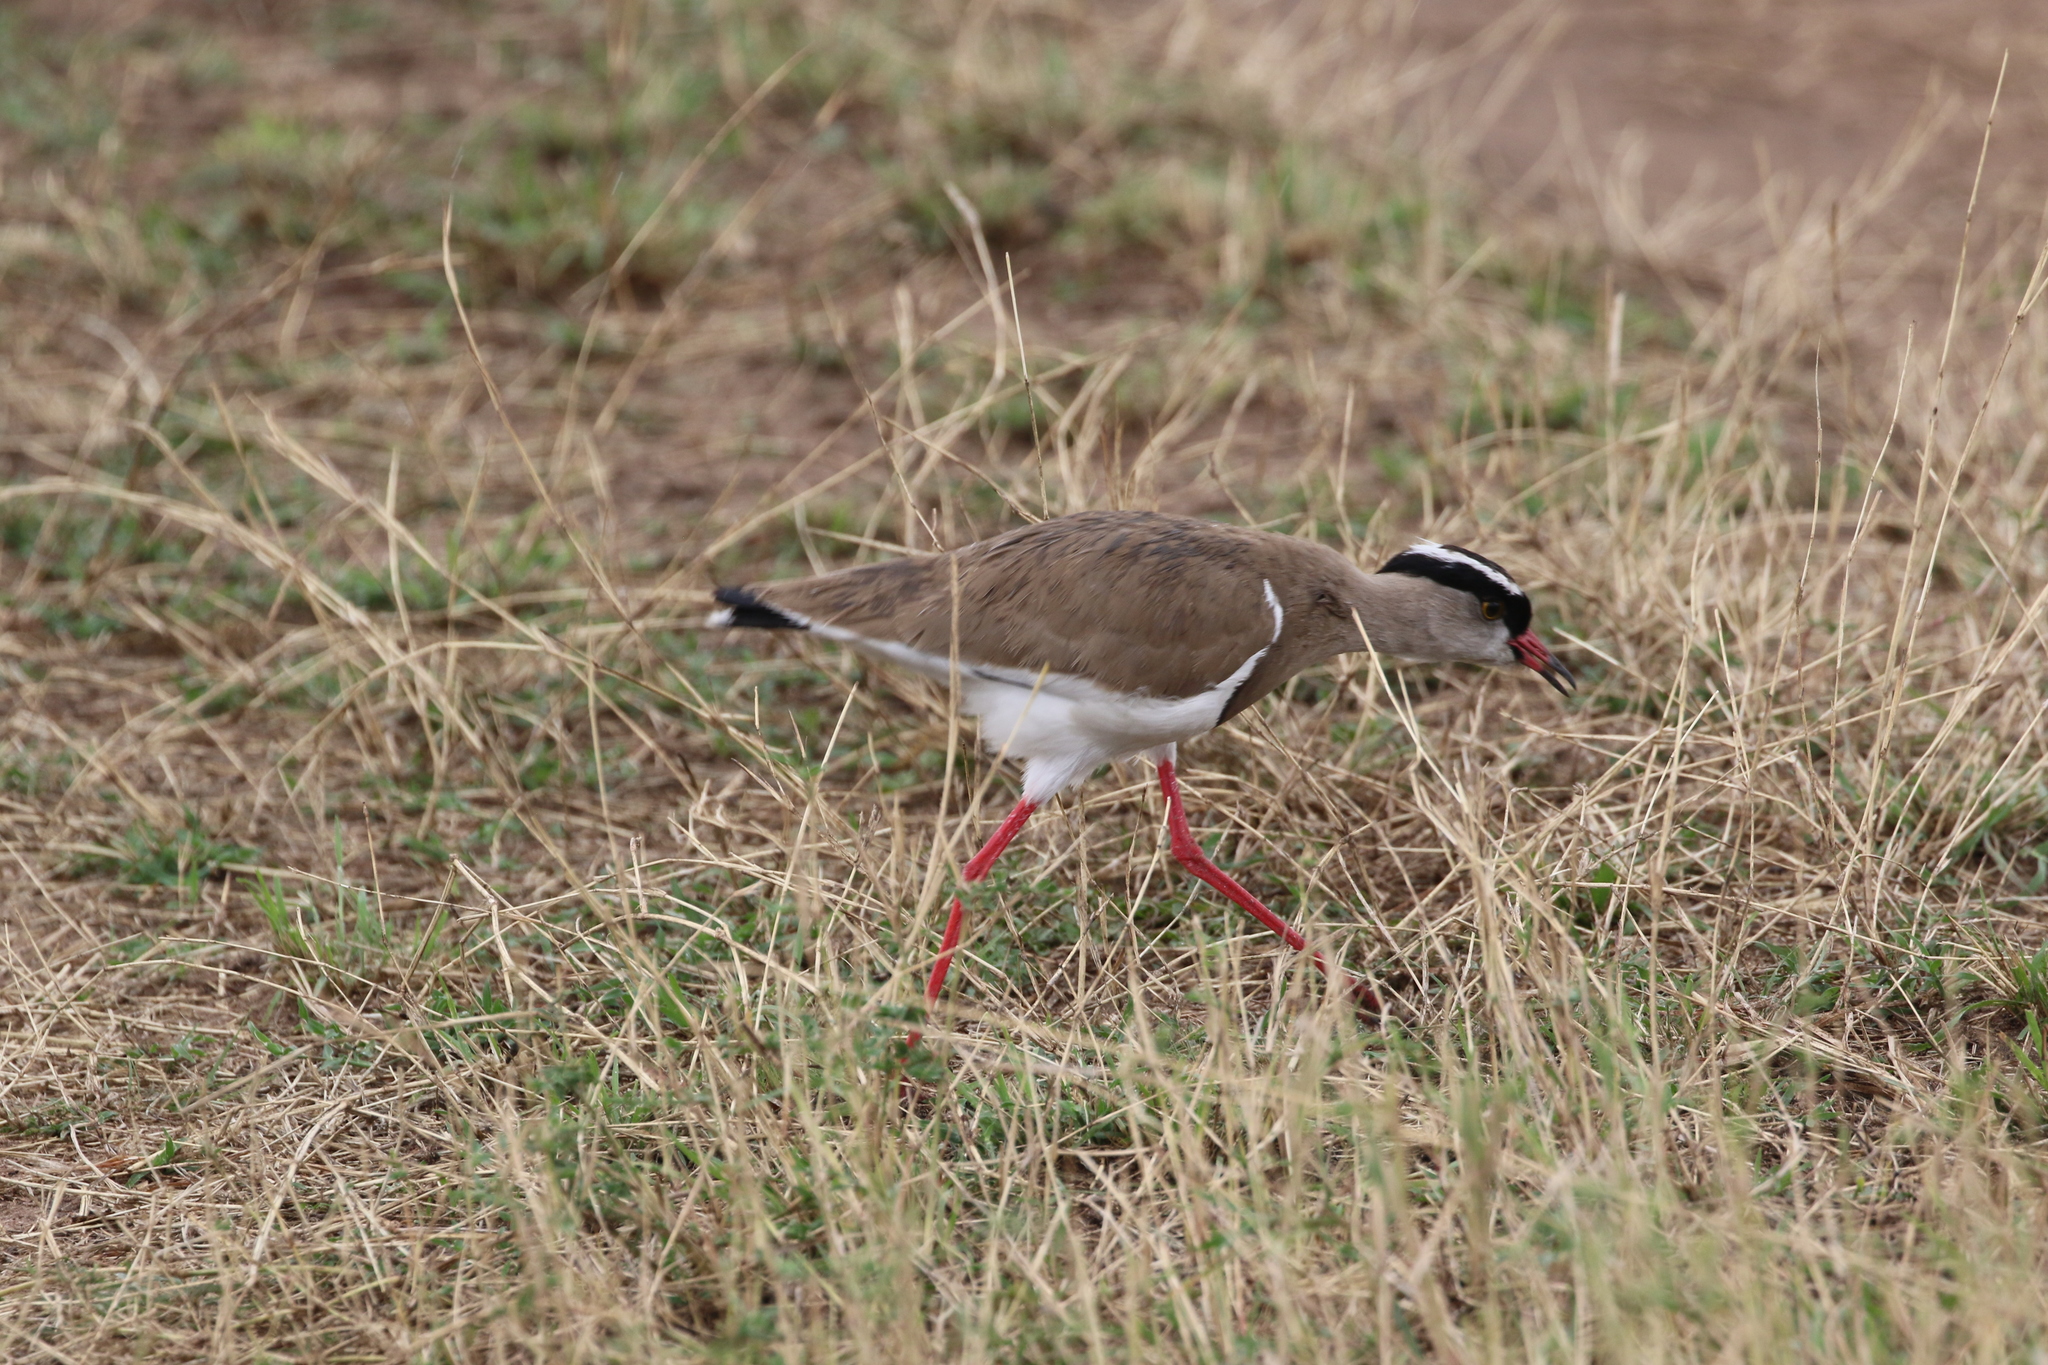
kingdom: Animalia
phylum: Chordata
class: Aves
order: Charadriiformes
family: Charadriidae
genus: Vanellus
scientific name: Vanellus coronatus
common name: Crowned lapwing
